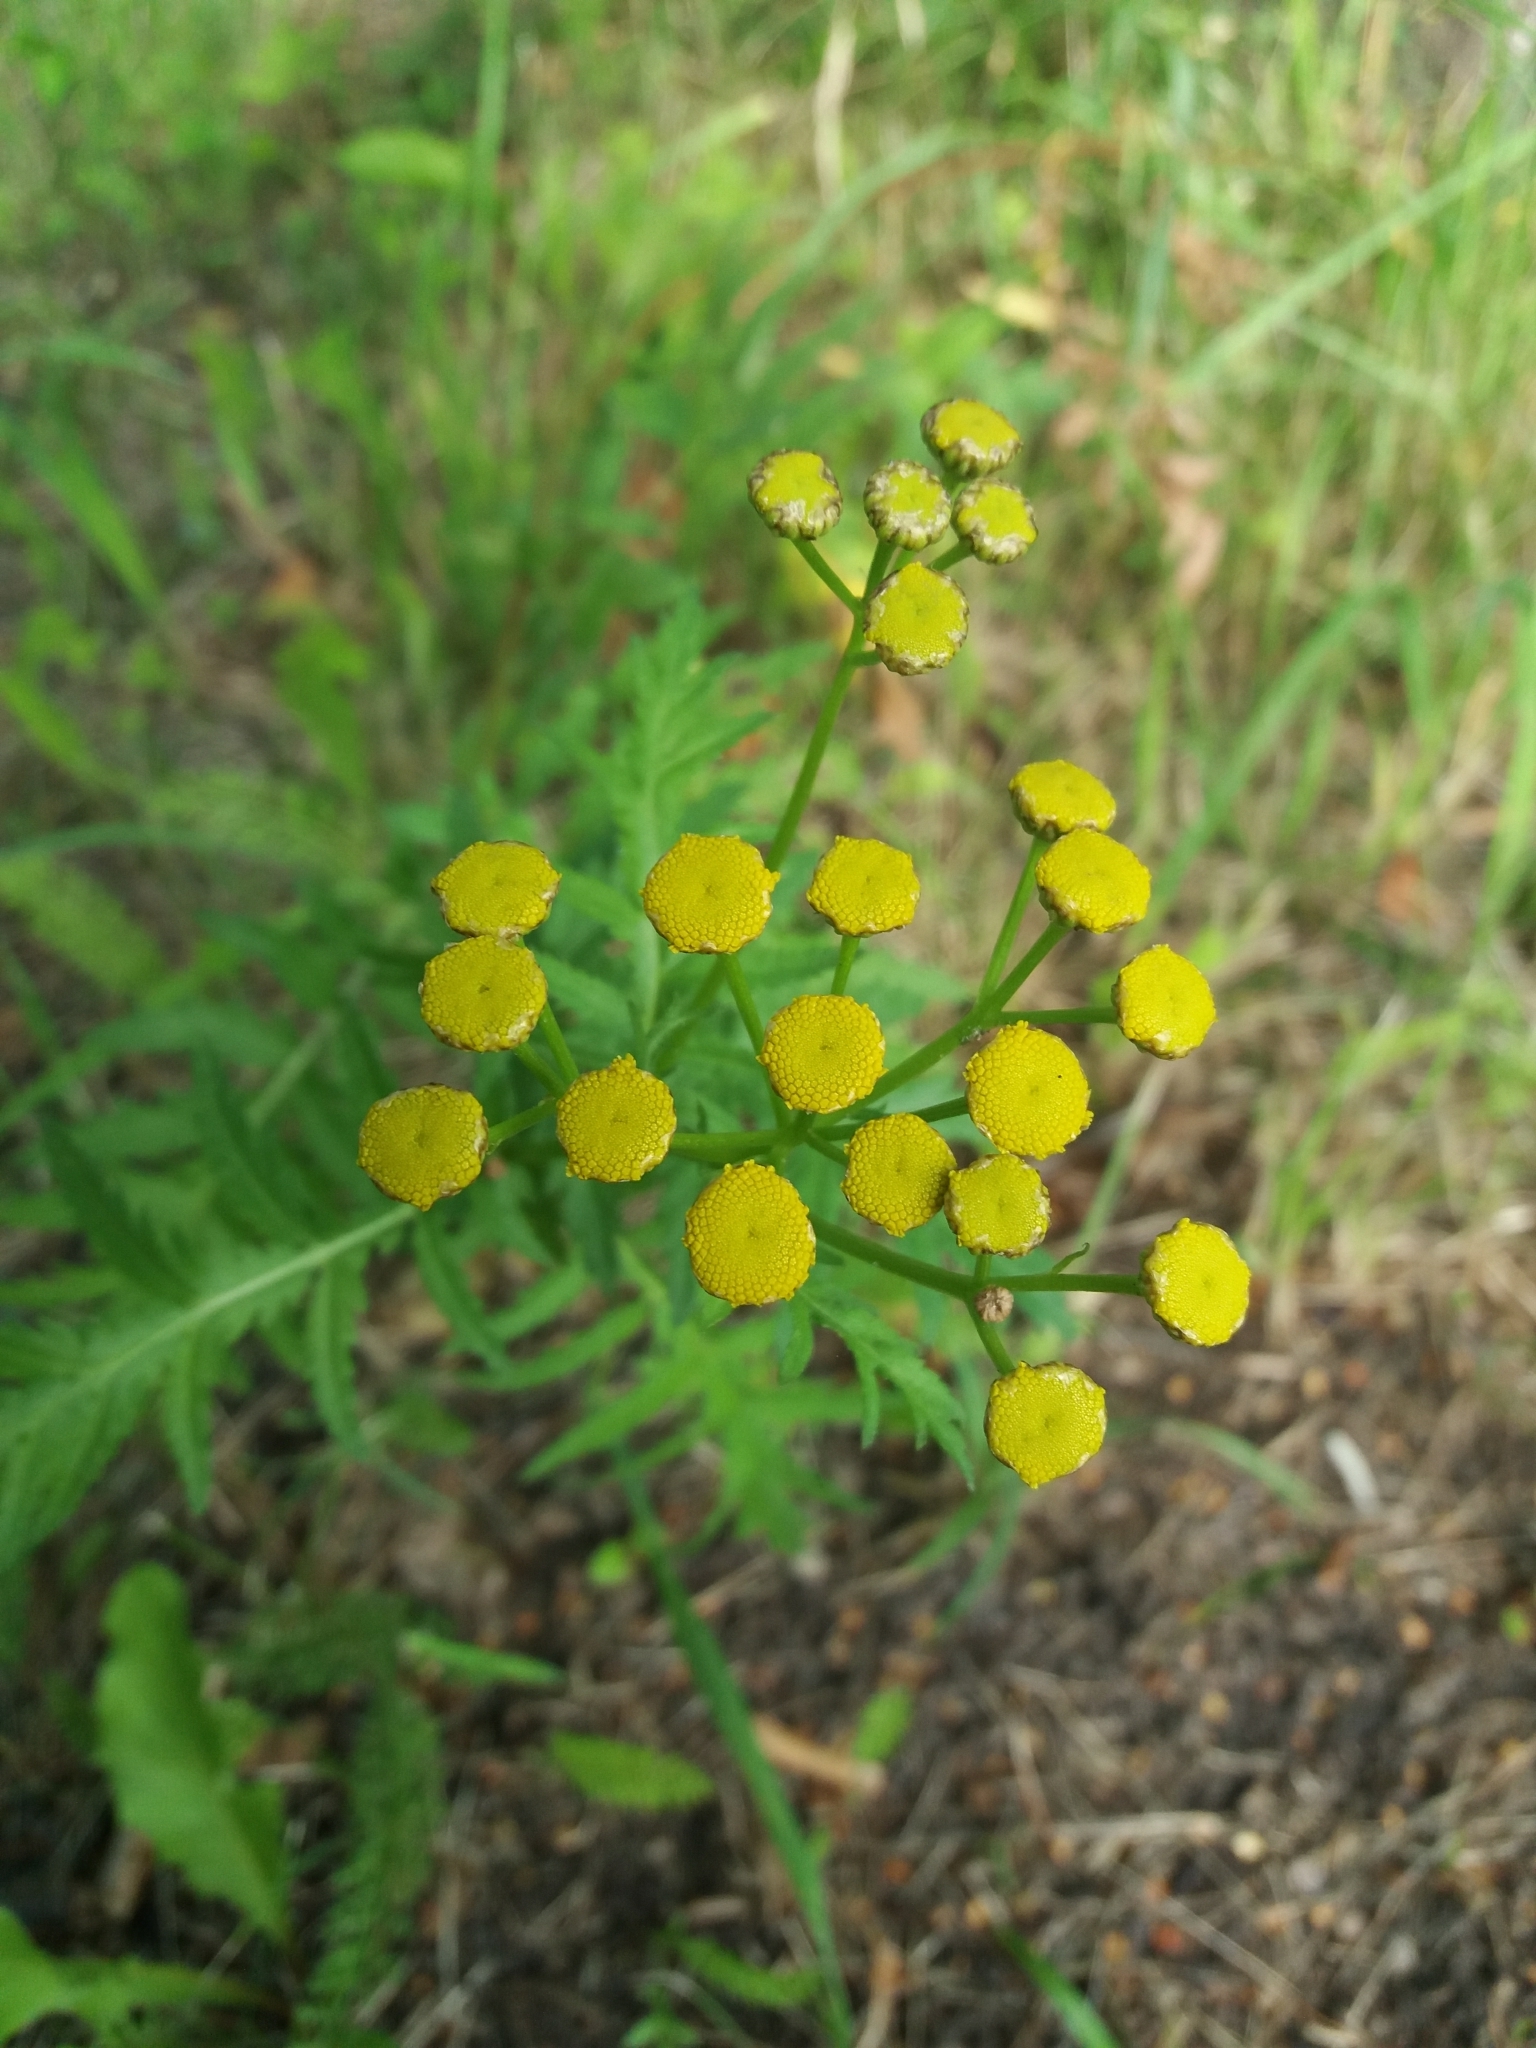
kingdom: Plantae
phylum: Tracheophyta
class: Magnoliopsida
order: Asterales
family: Asteraceae
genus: Tanacetum
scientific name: Tanacetum vulgare
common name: Common tansy
